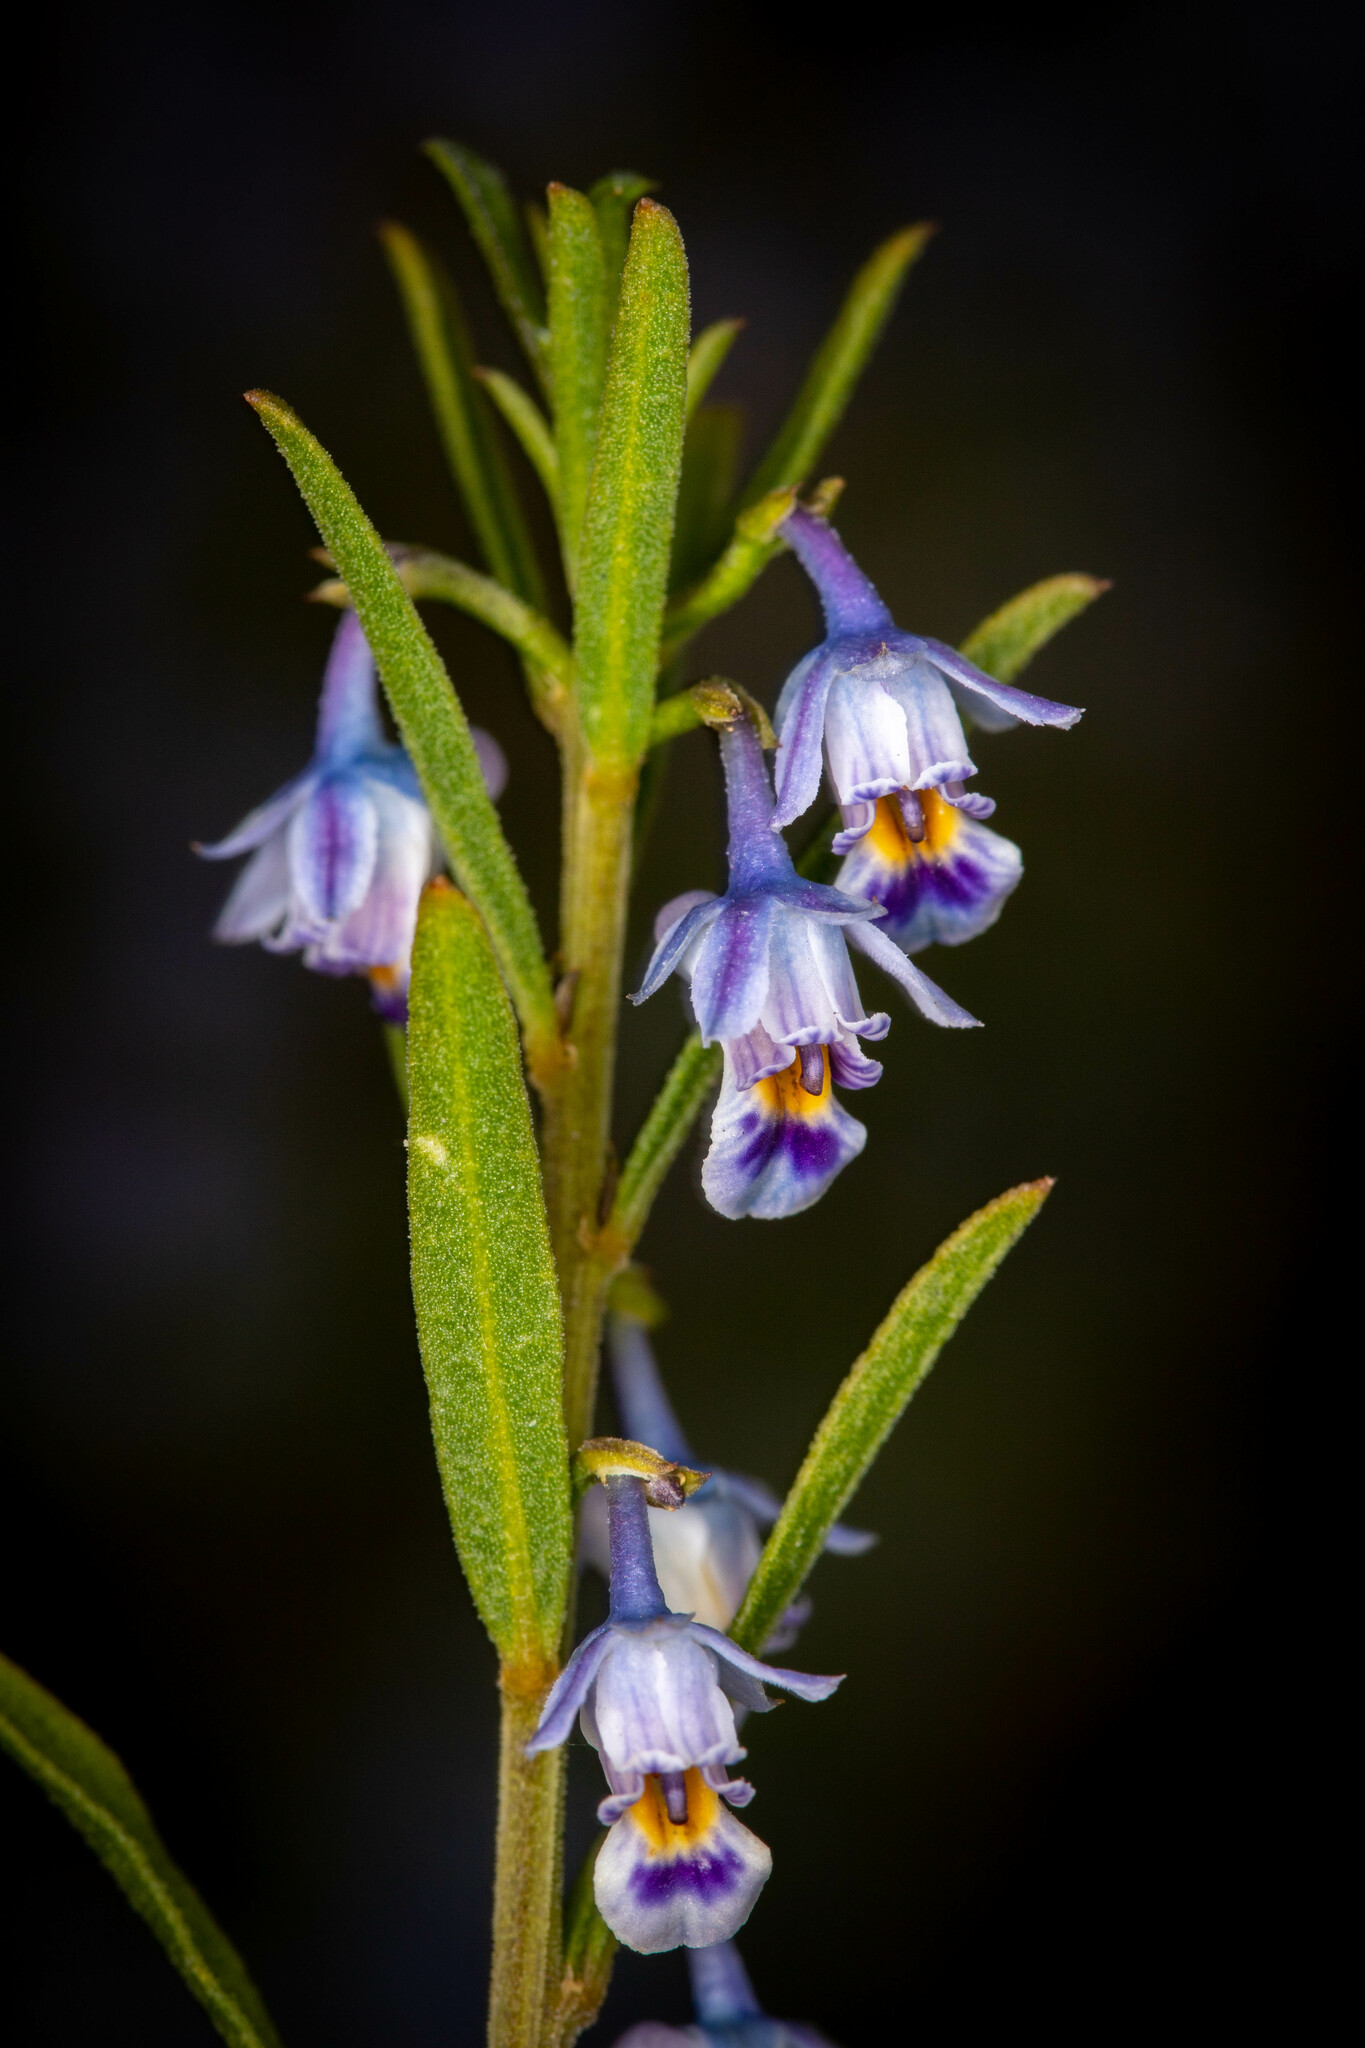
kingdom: Plantae
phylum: Tracheophyta
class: Magnoliopsida
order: Malpighiales
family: Violaceae
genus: Pigea
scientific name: Pigea floribunda
